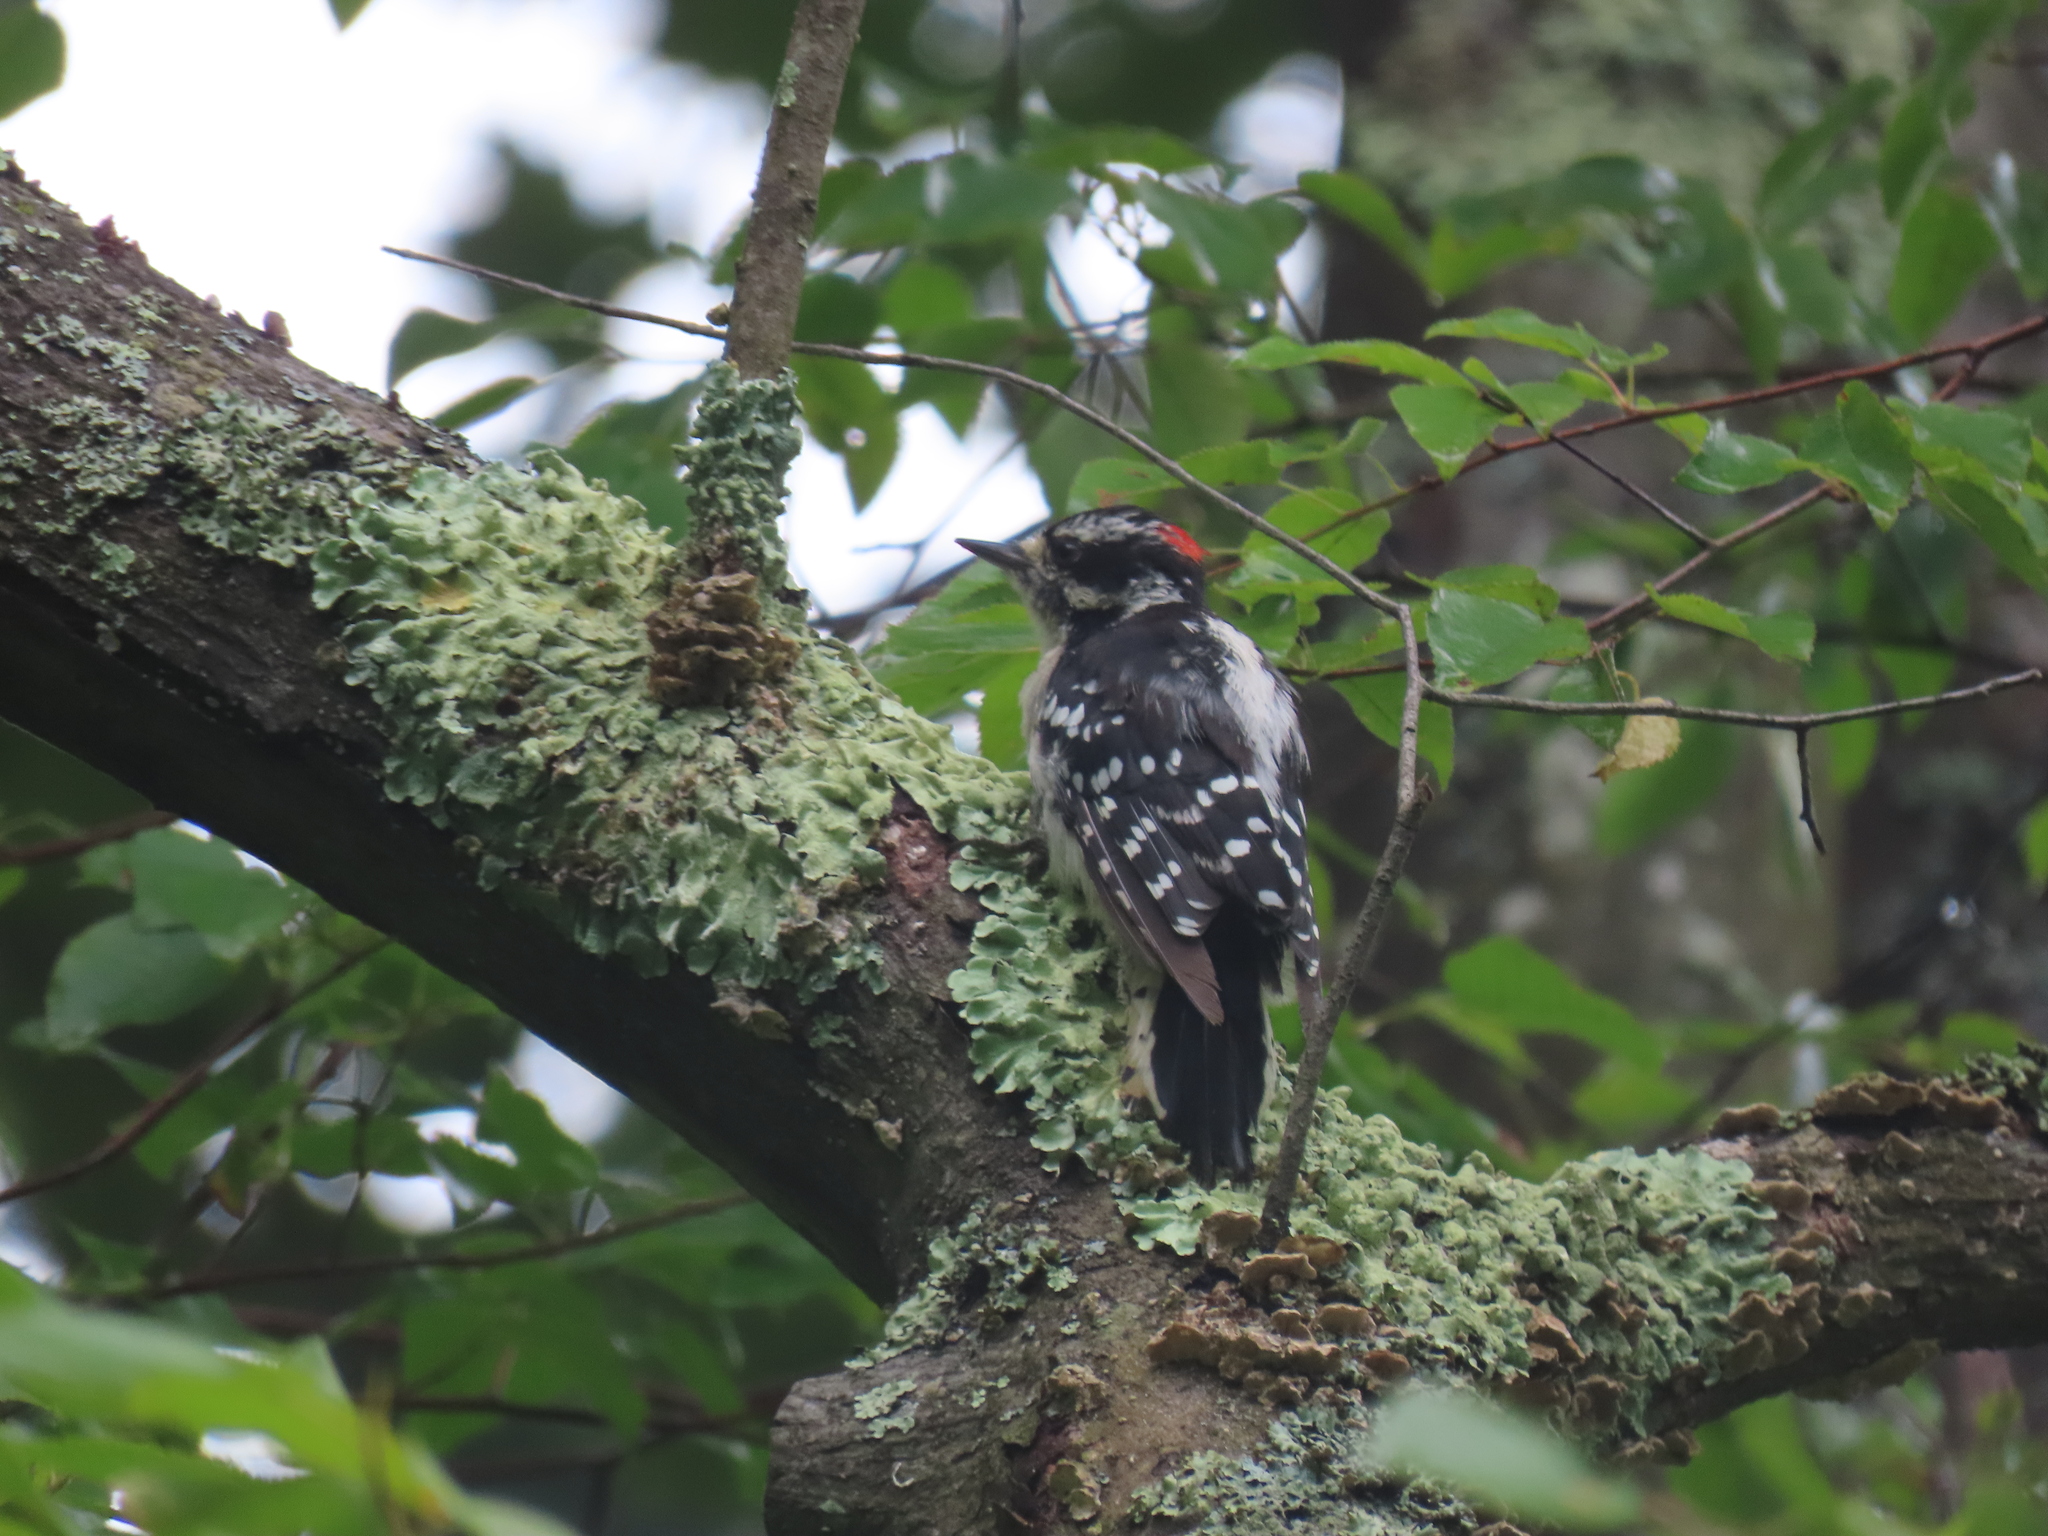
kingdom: Animalia
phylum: Chordata
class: Aves
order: Piciformes
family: Picidae
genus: Dryobates
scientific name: Dryobates pubescens
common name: Downy woodpecker
